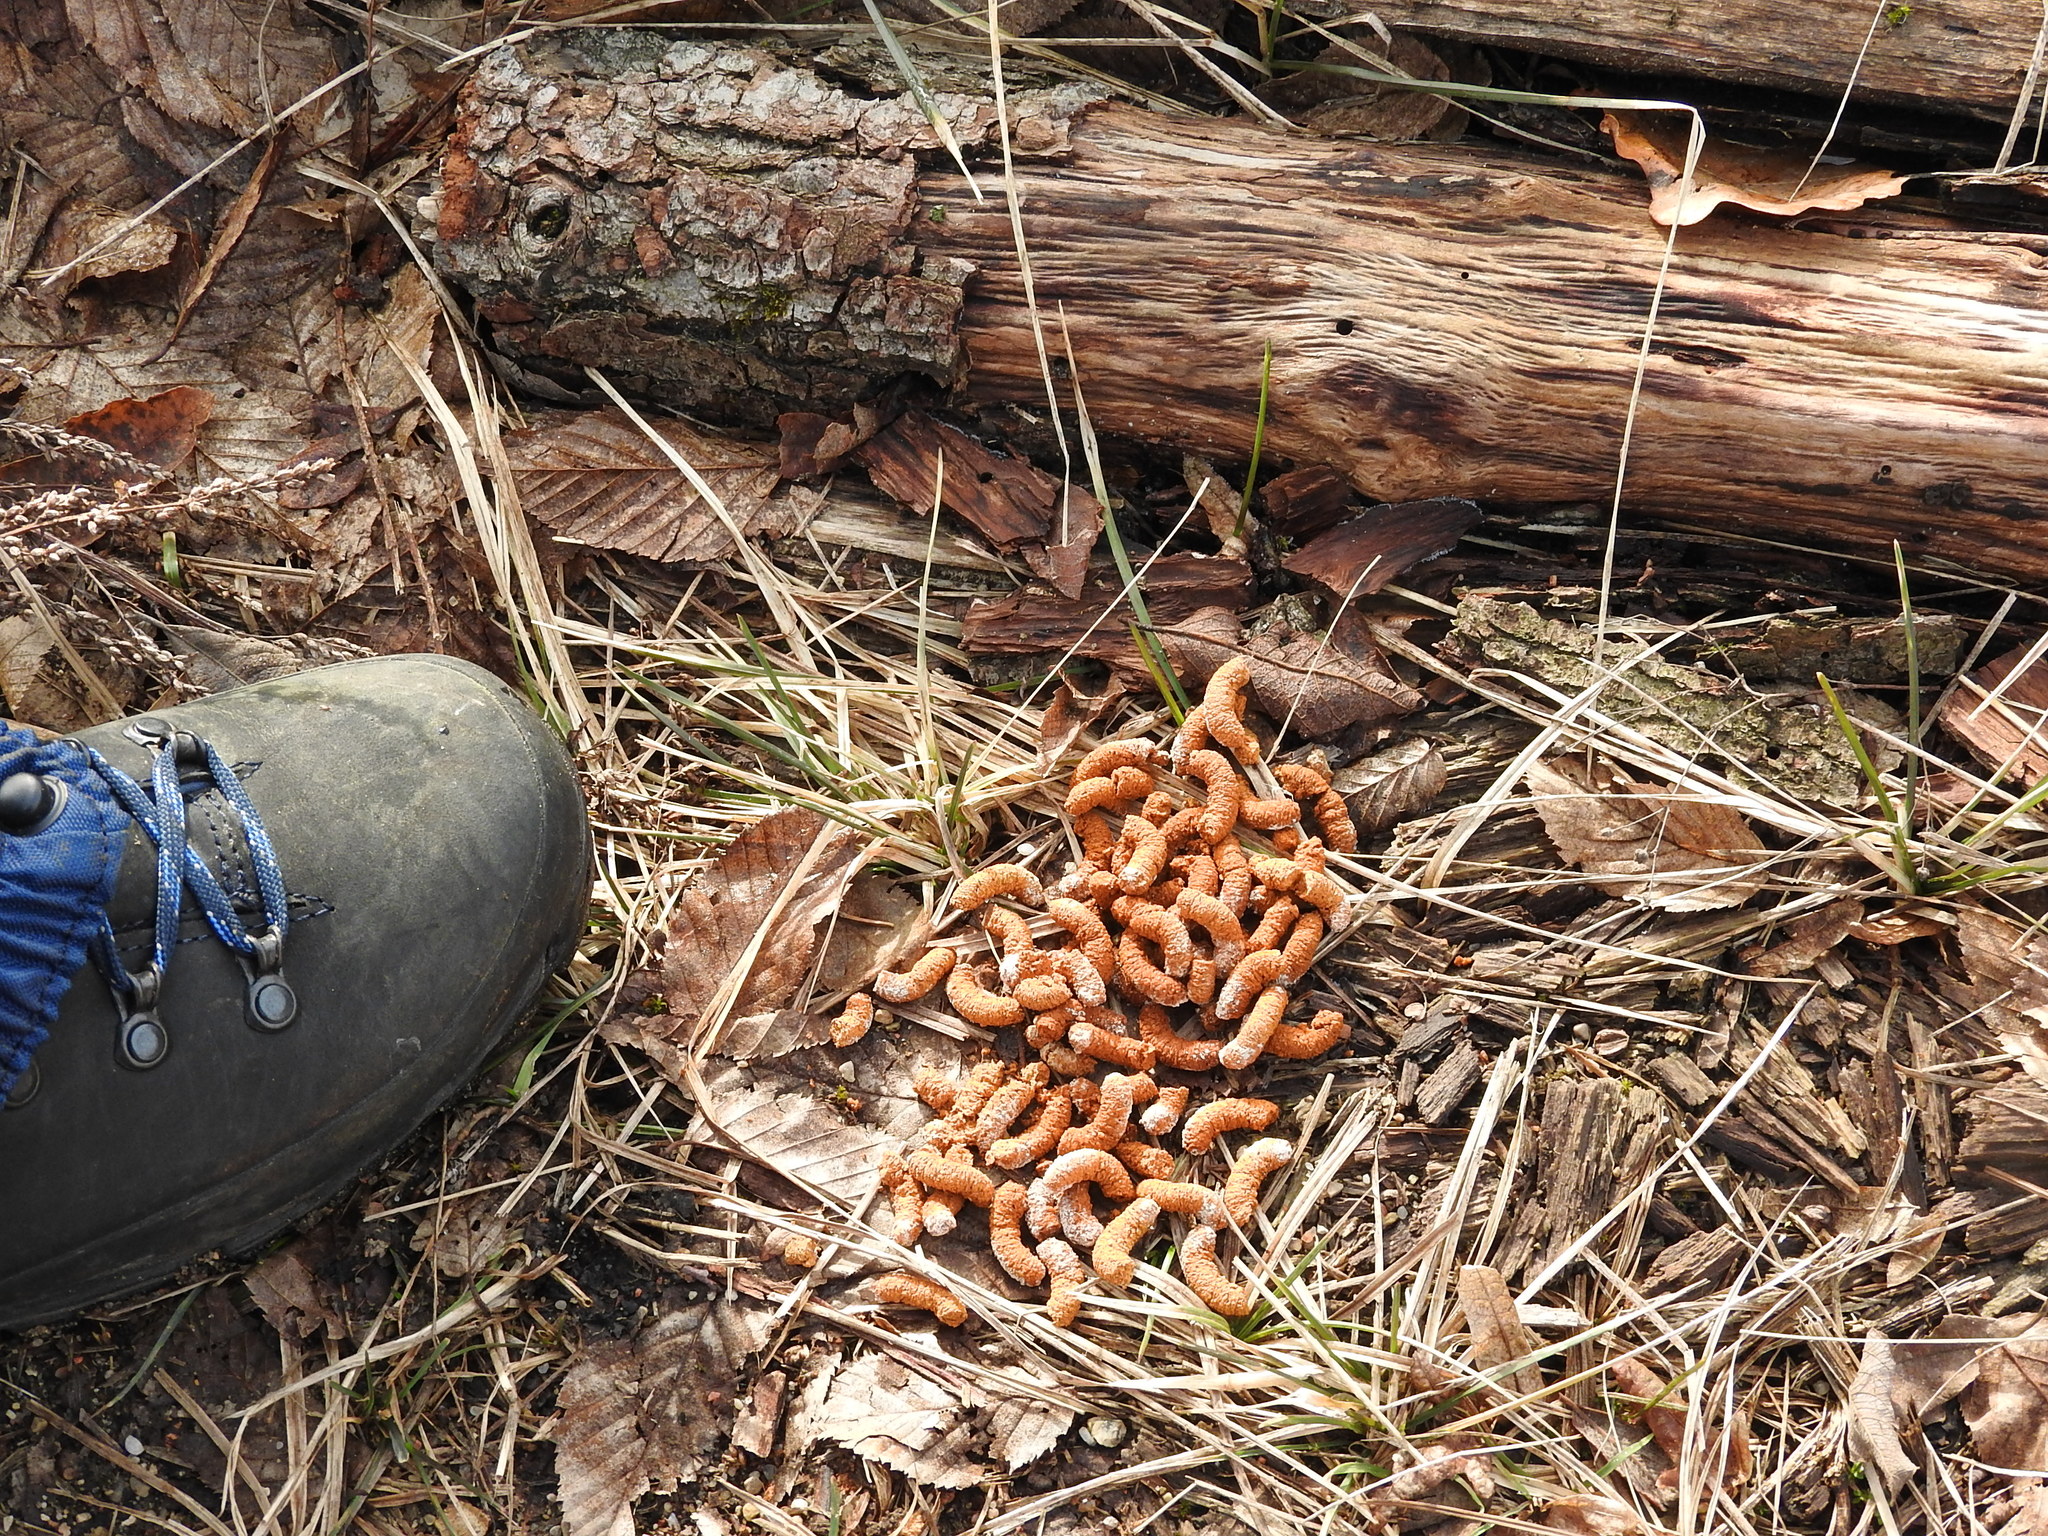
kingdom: Animalia
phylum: Chordata
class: Aves
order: Galliformes
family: Phasianidae
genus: Tetrastes
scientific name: Tetrastes bonasia
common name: Hazel grouse
